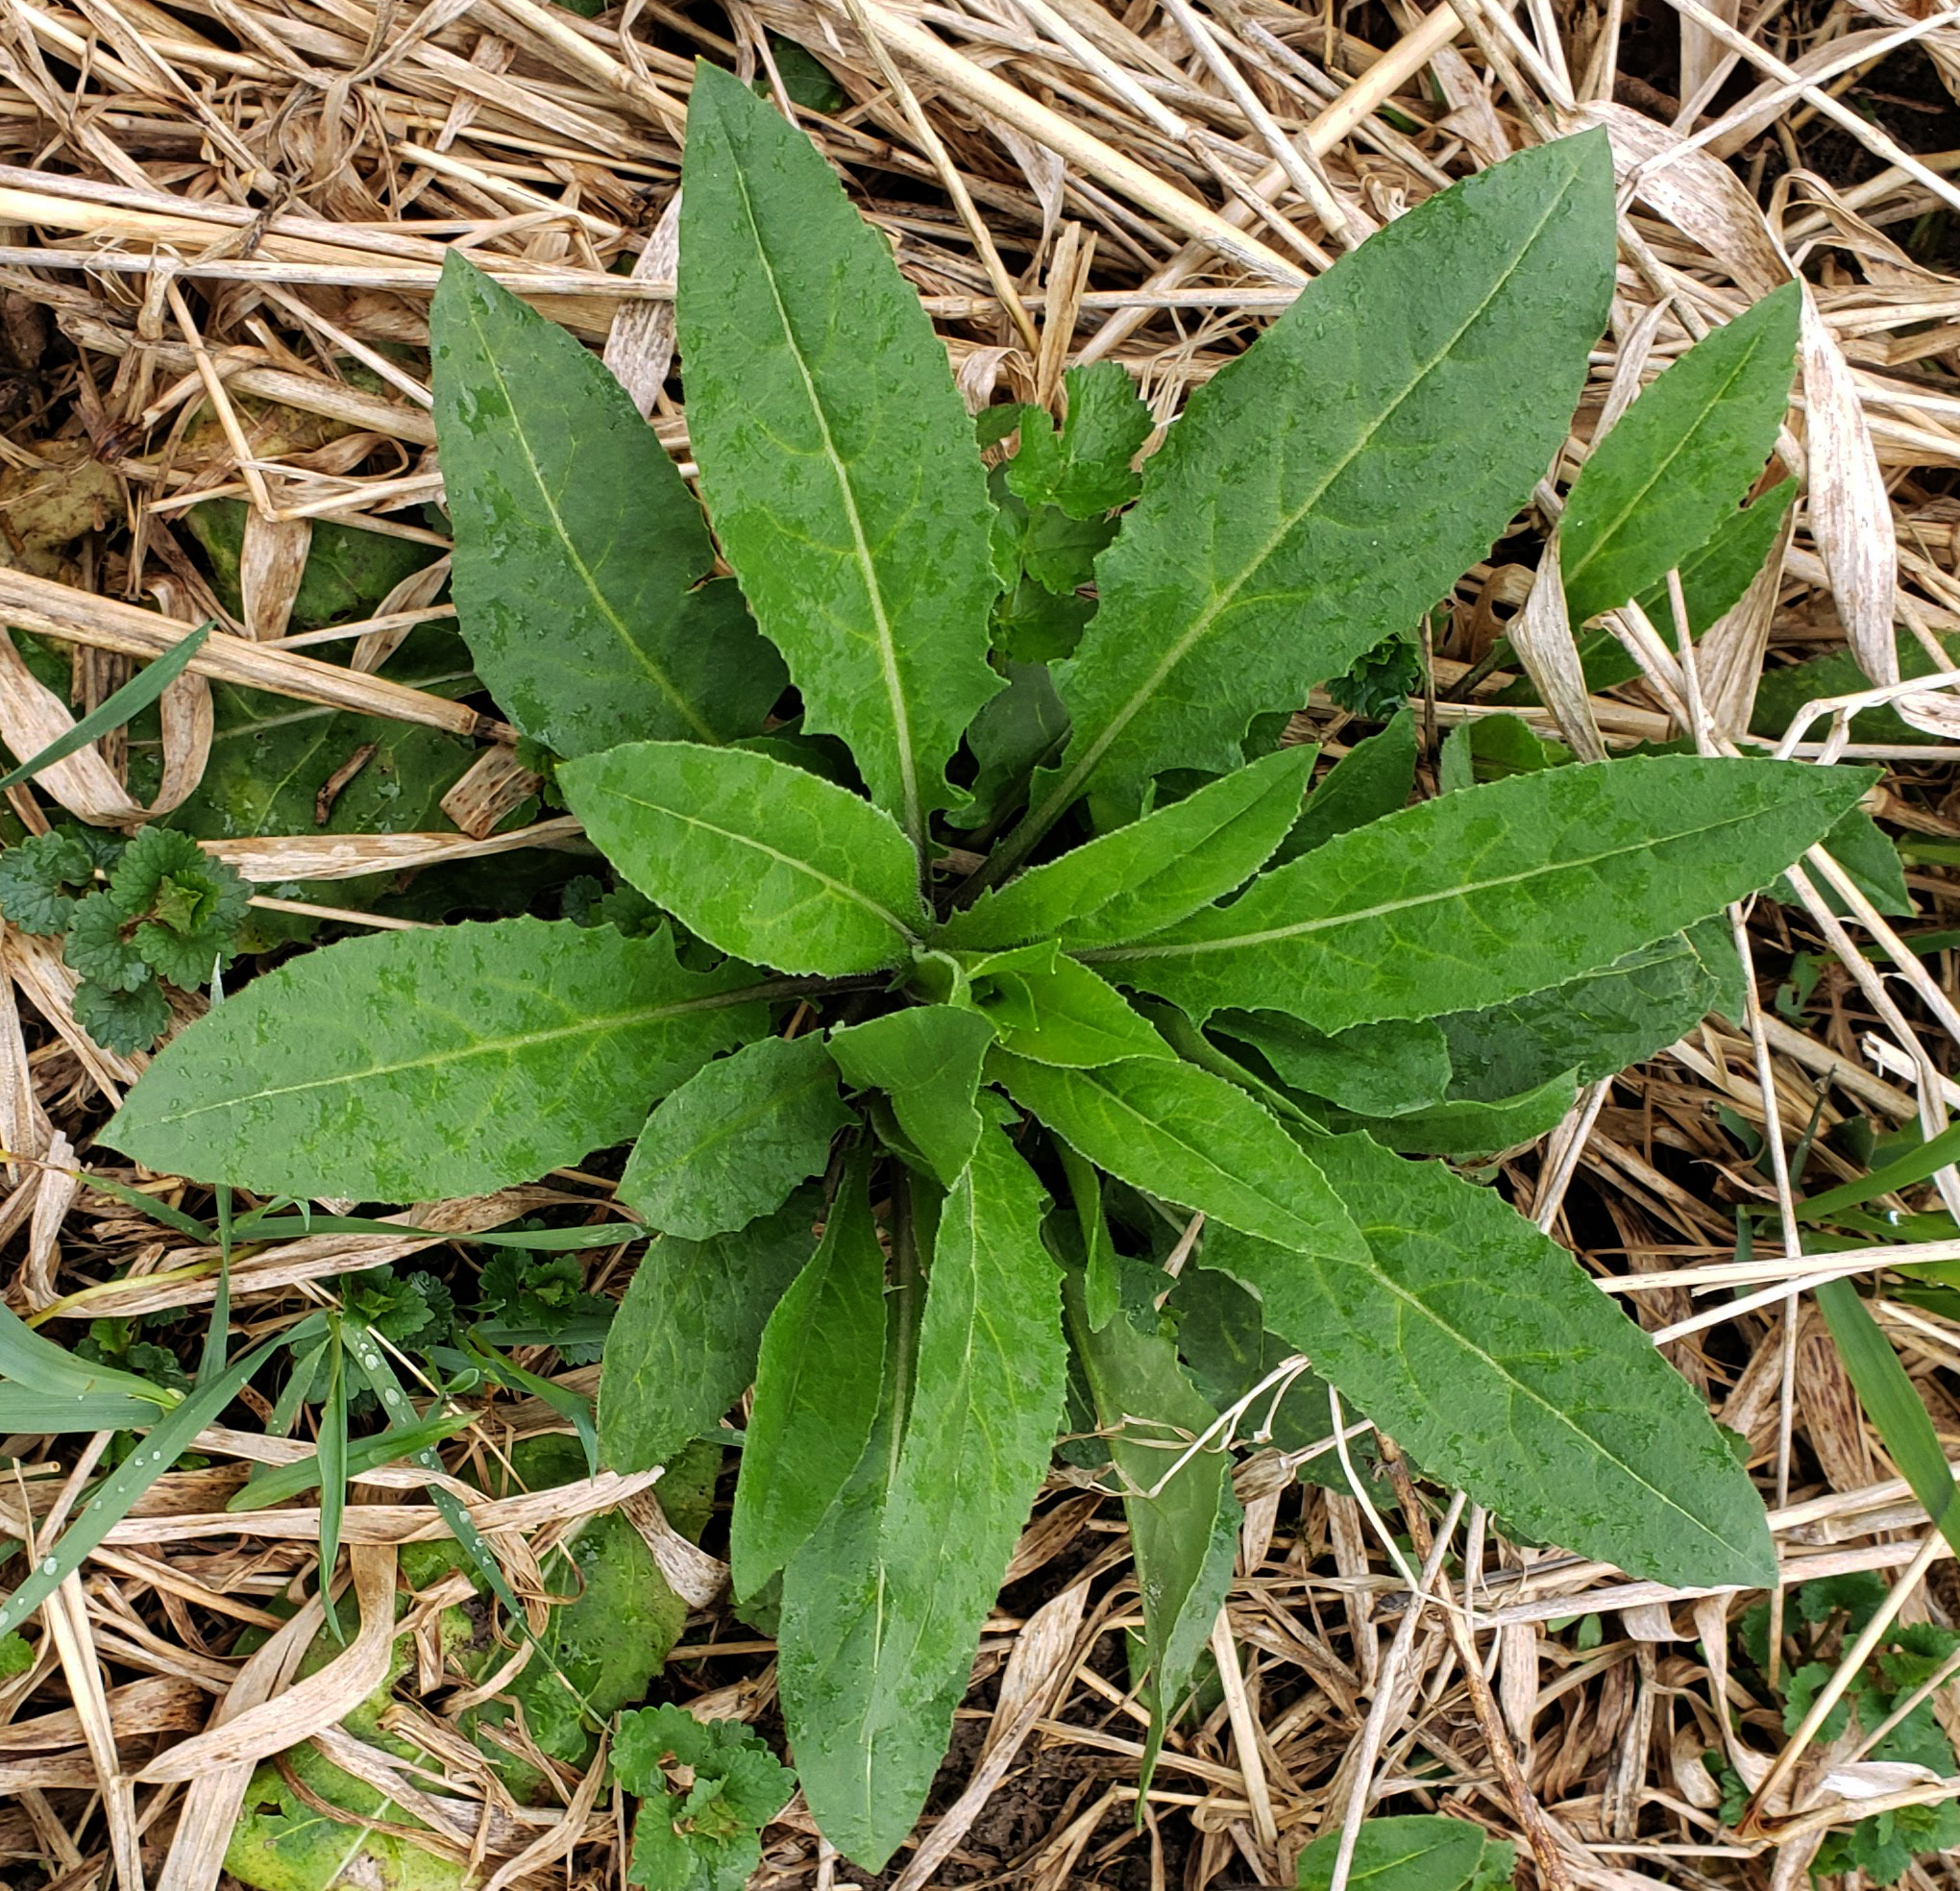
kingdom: Plantae
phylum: Tracheophyta
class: Magnoliopsida
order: Brassicales
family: Brassicaceae
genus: Hesperis
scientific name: Hesperis matronalis
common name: Dame's-violet
